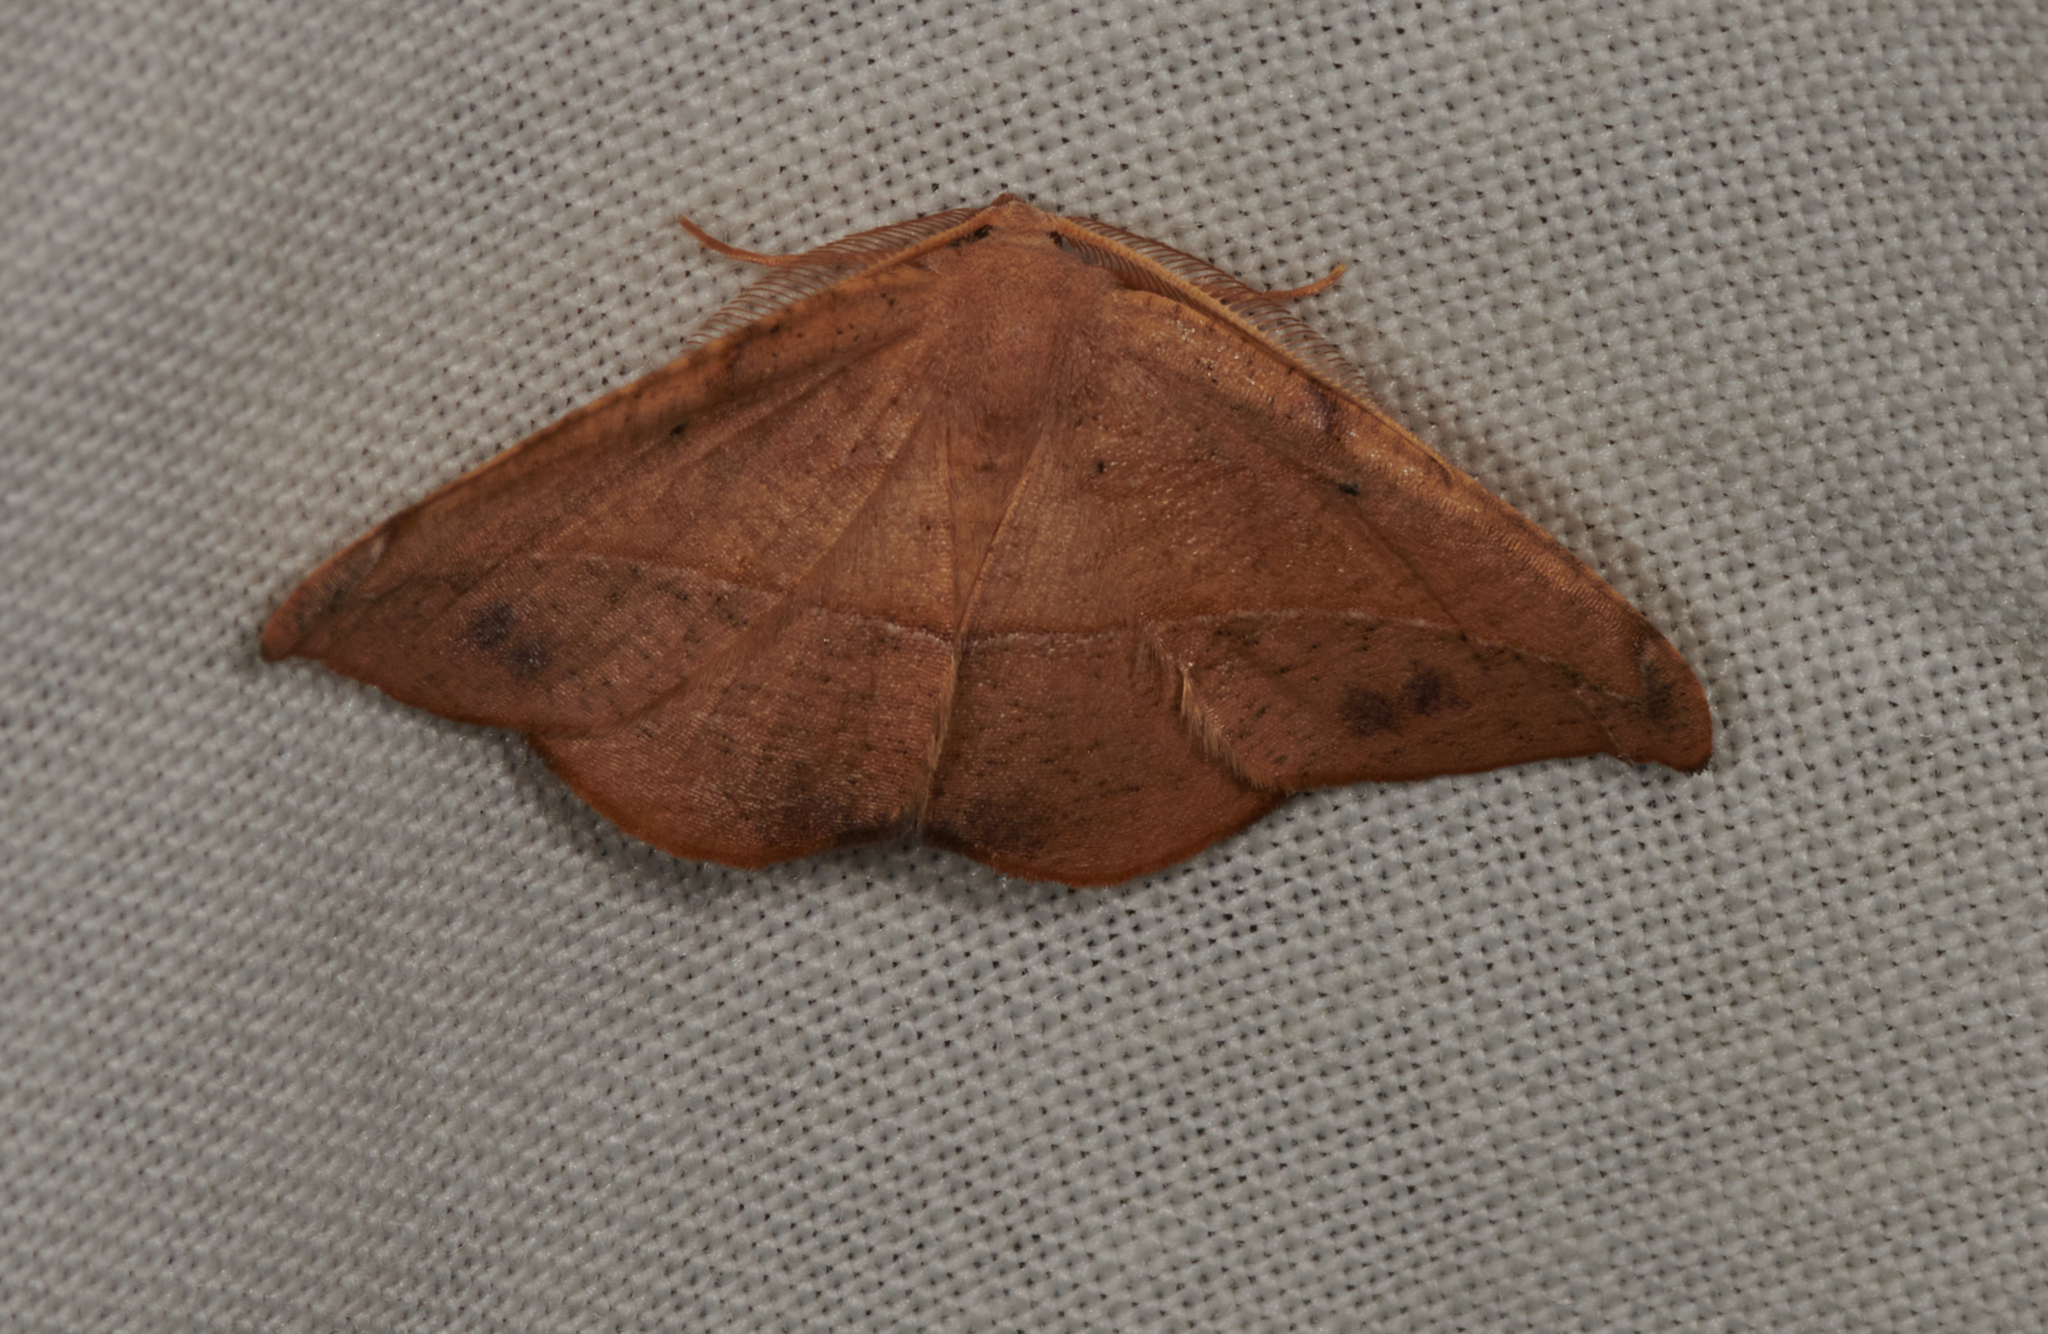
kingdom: Animalia
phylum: Arthropoda
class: Insecta
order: Lepidoptera
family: Geometridae
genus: Patalene
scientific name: Patalene olyzonaria
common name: Juniper geometer moth
